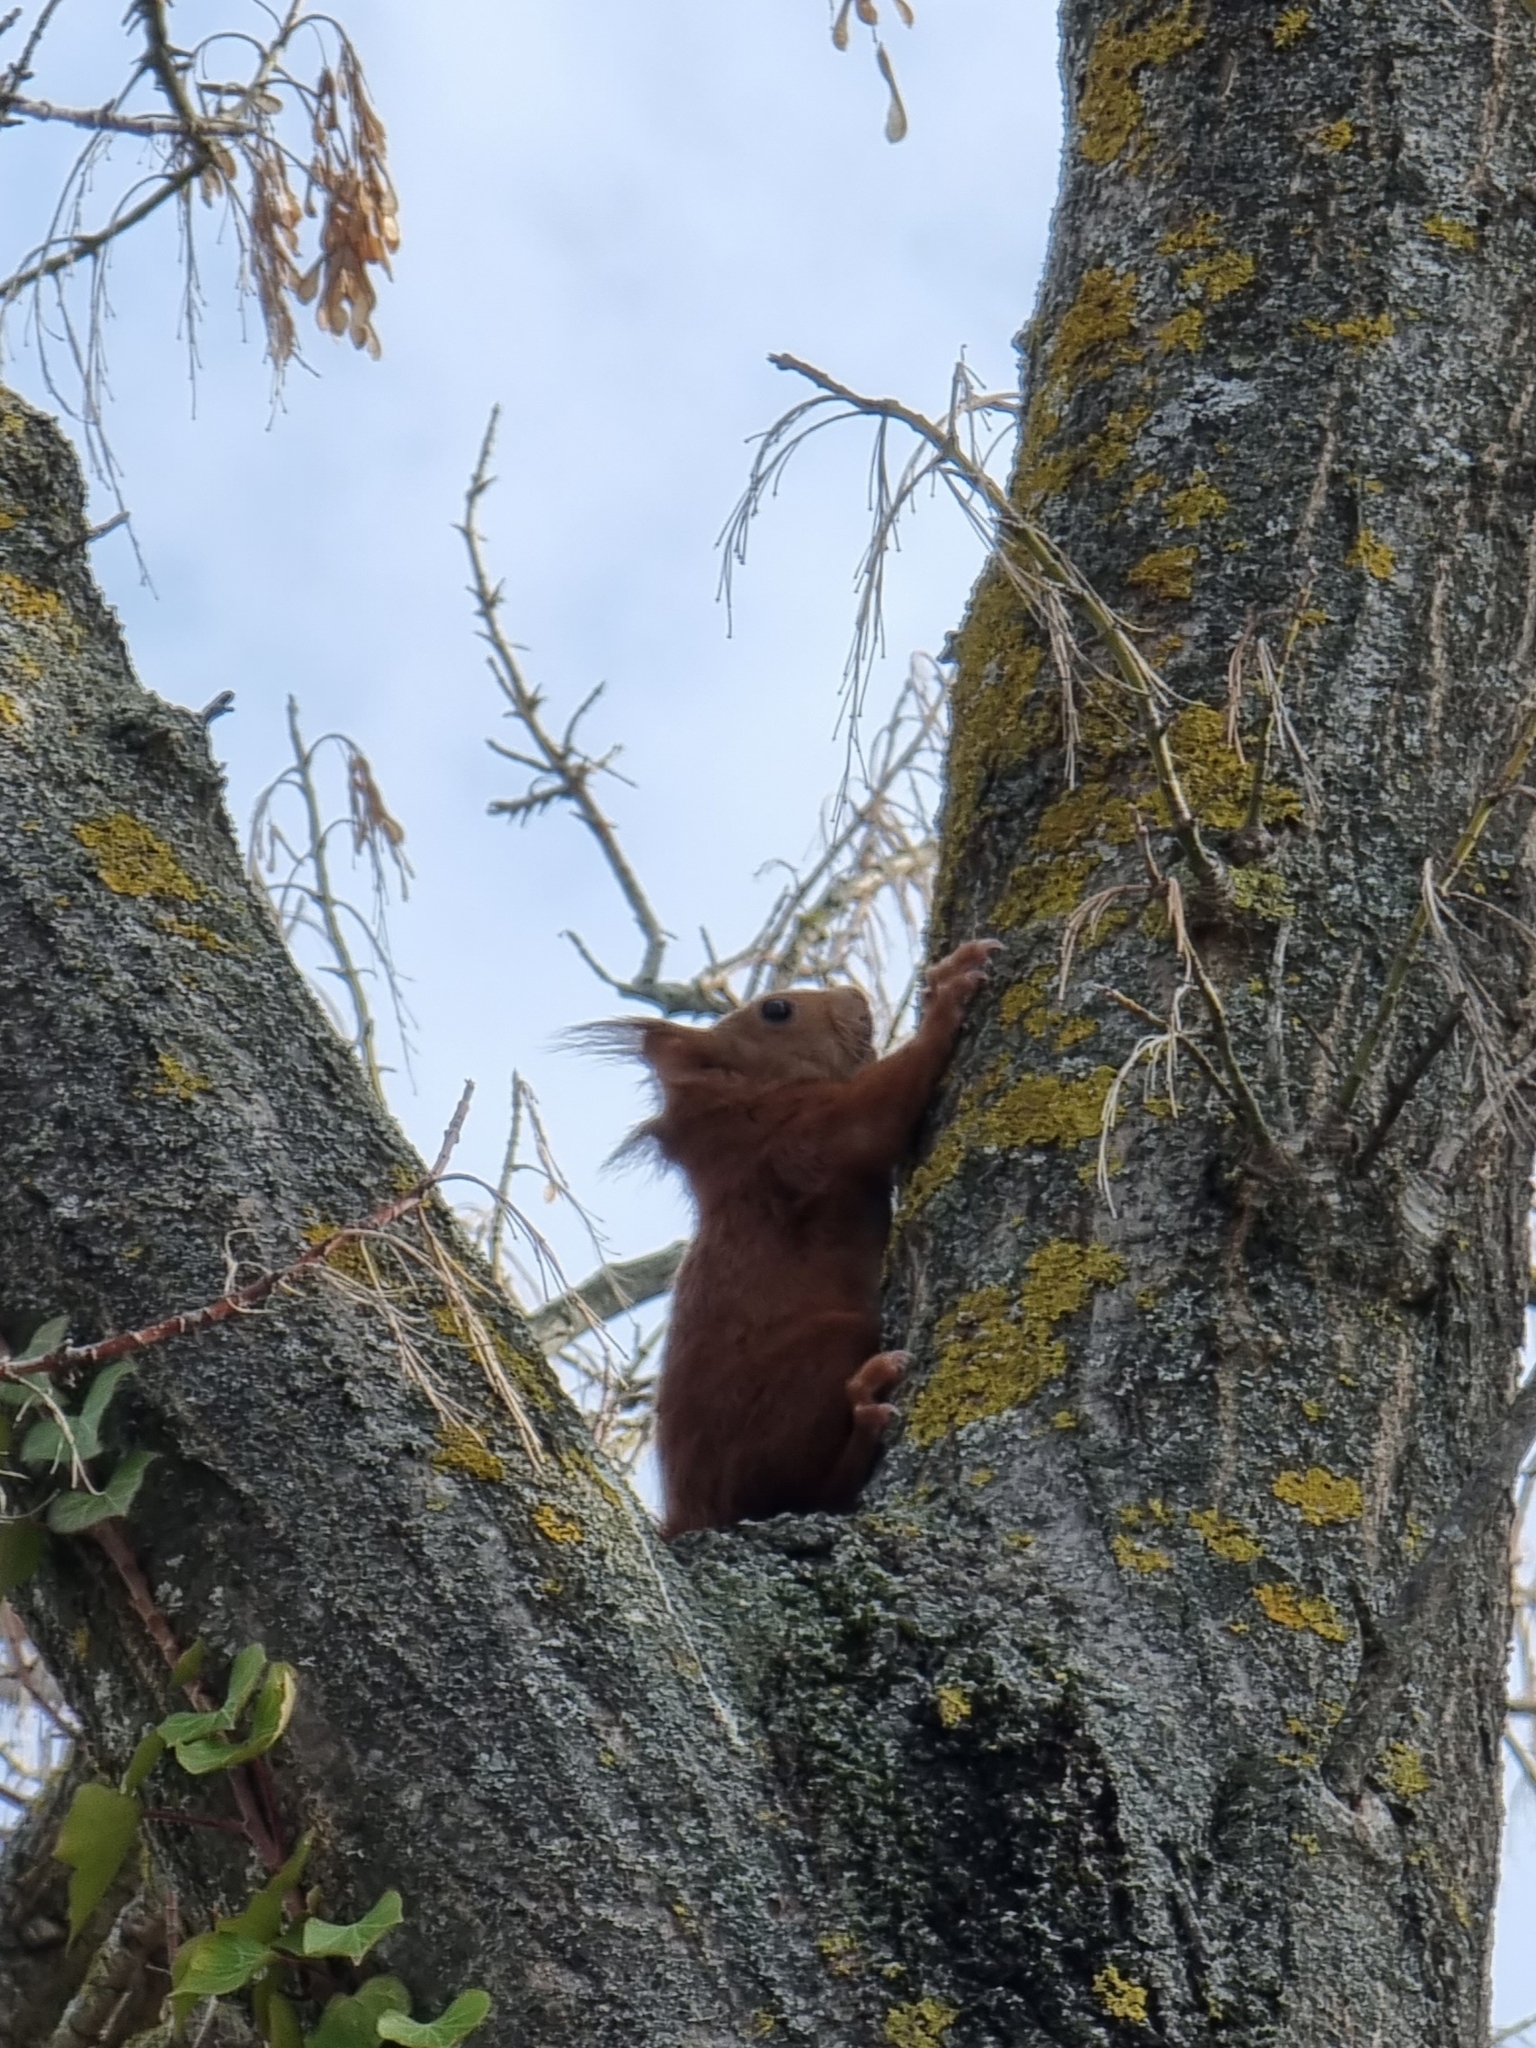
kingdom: Animalia
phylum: Chordata
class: Mammalia
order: Rodentia
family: Sciuridae
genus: Sciurus
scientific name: Sciurus vulgaris
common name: Eurasian red squirrel
